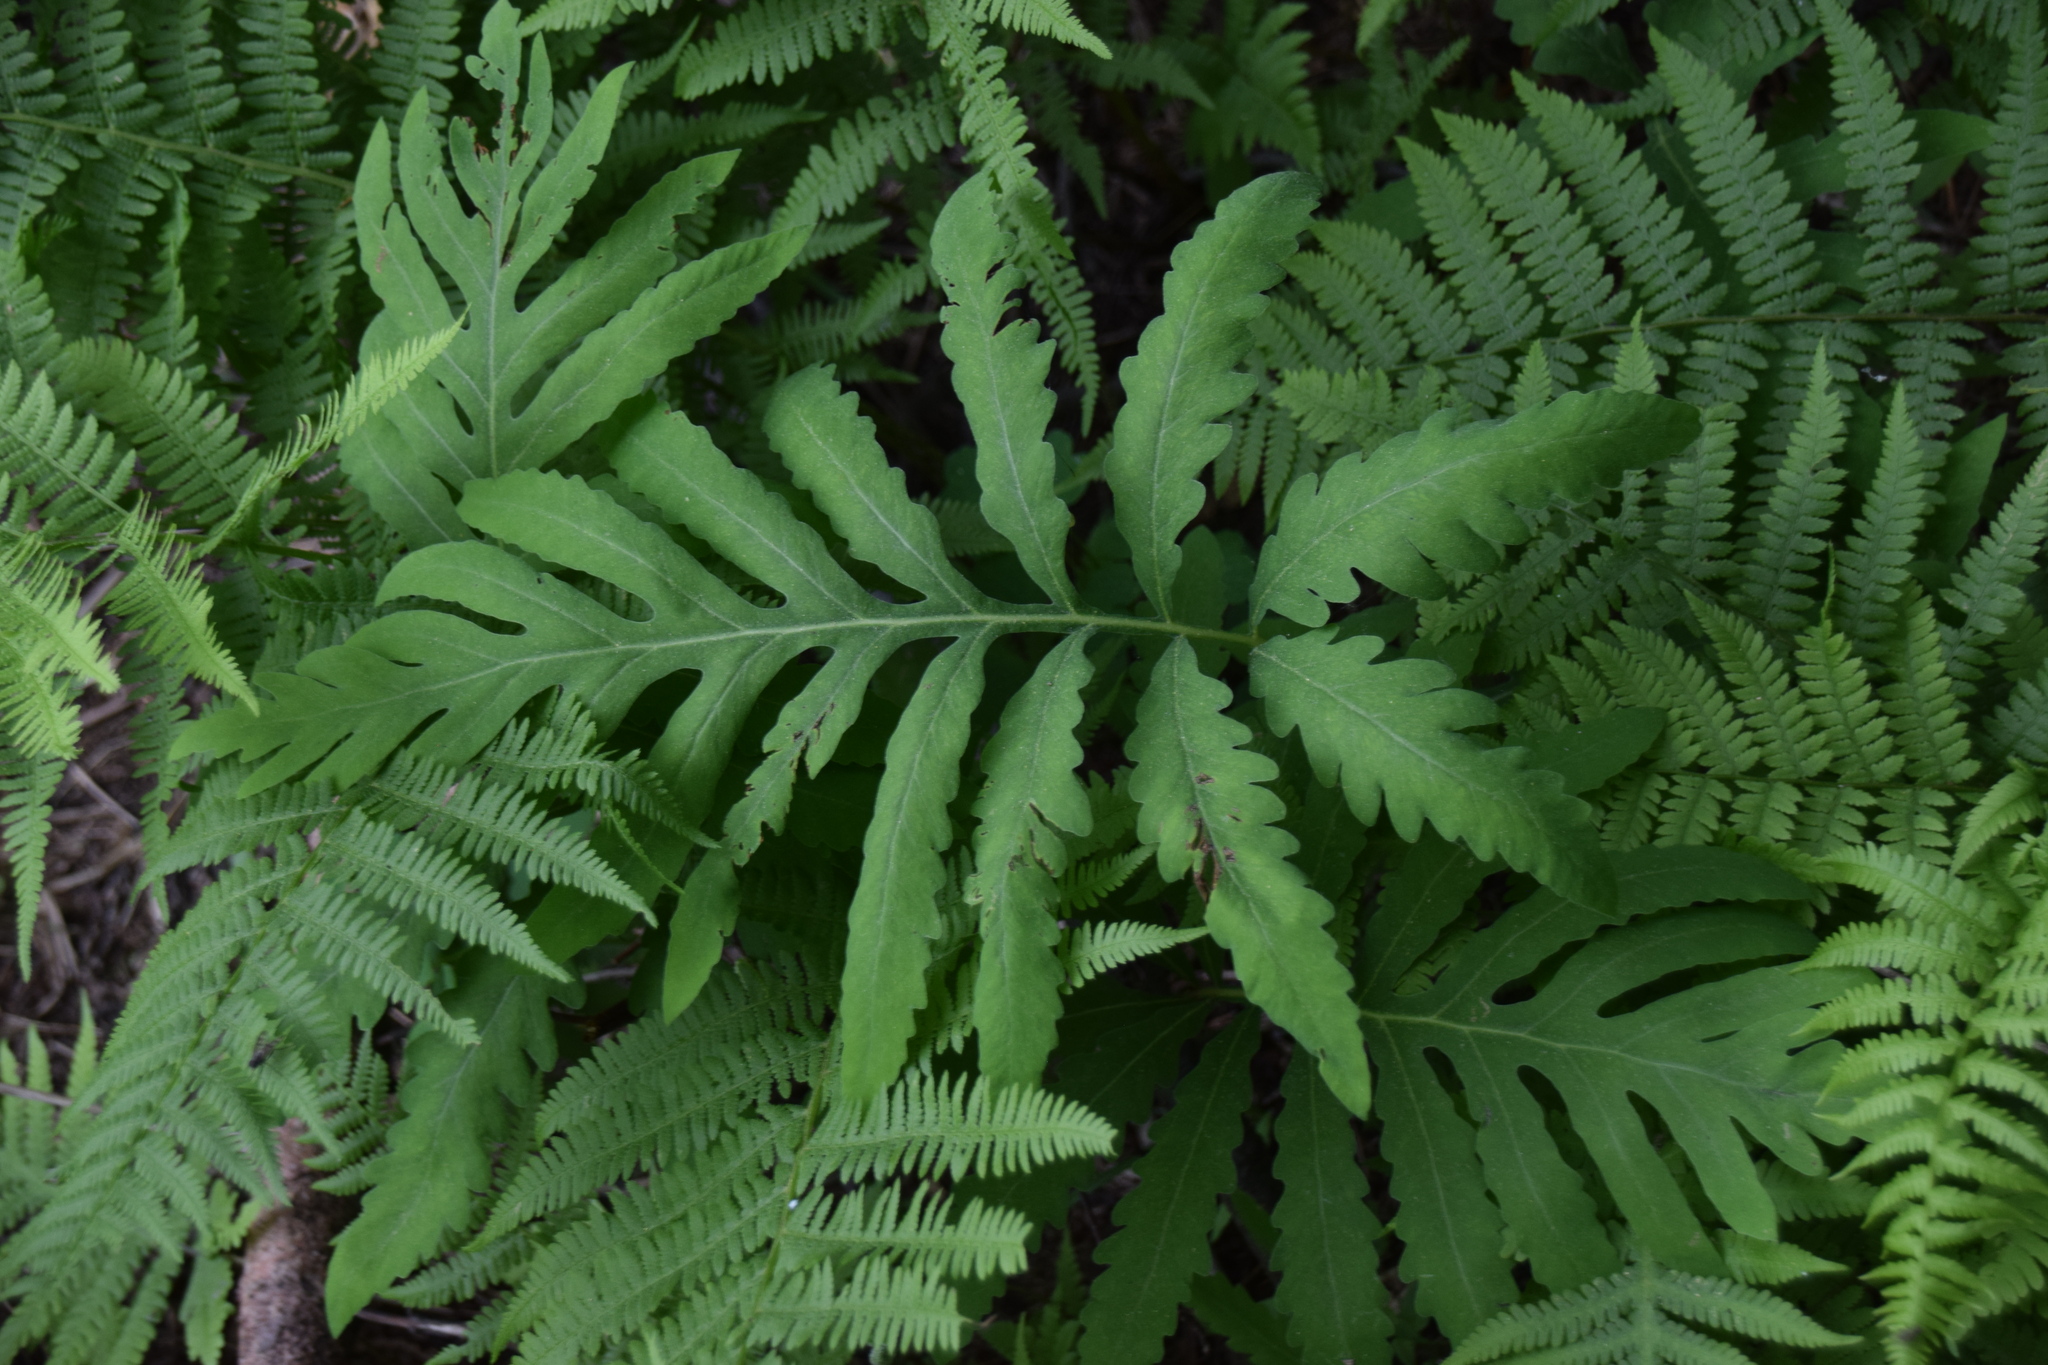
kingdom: Plantae
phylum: Tracheophyta
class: Polypodiopsida
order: Polypodiales
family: Onocleaceae
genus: Onoclea
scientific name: Onoclea sensibilis
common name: Sensitive fern
